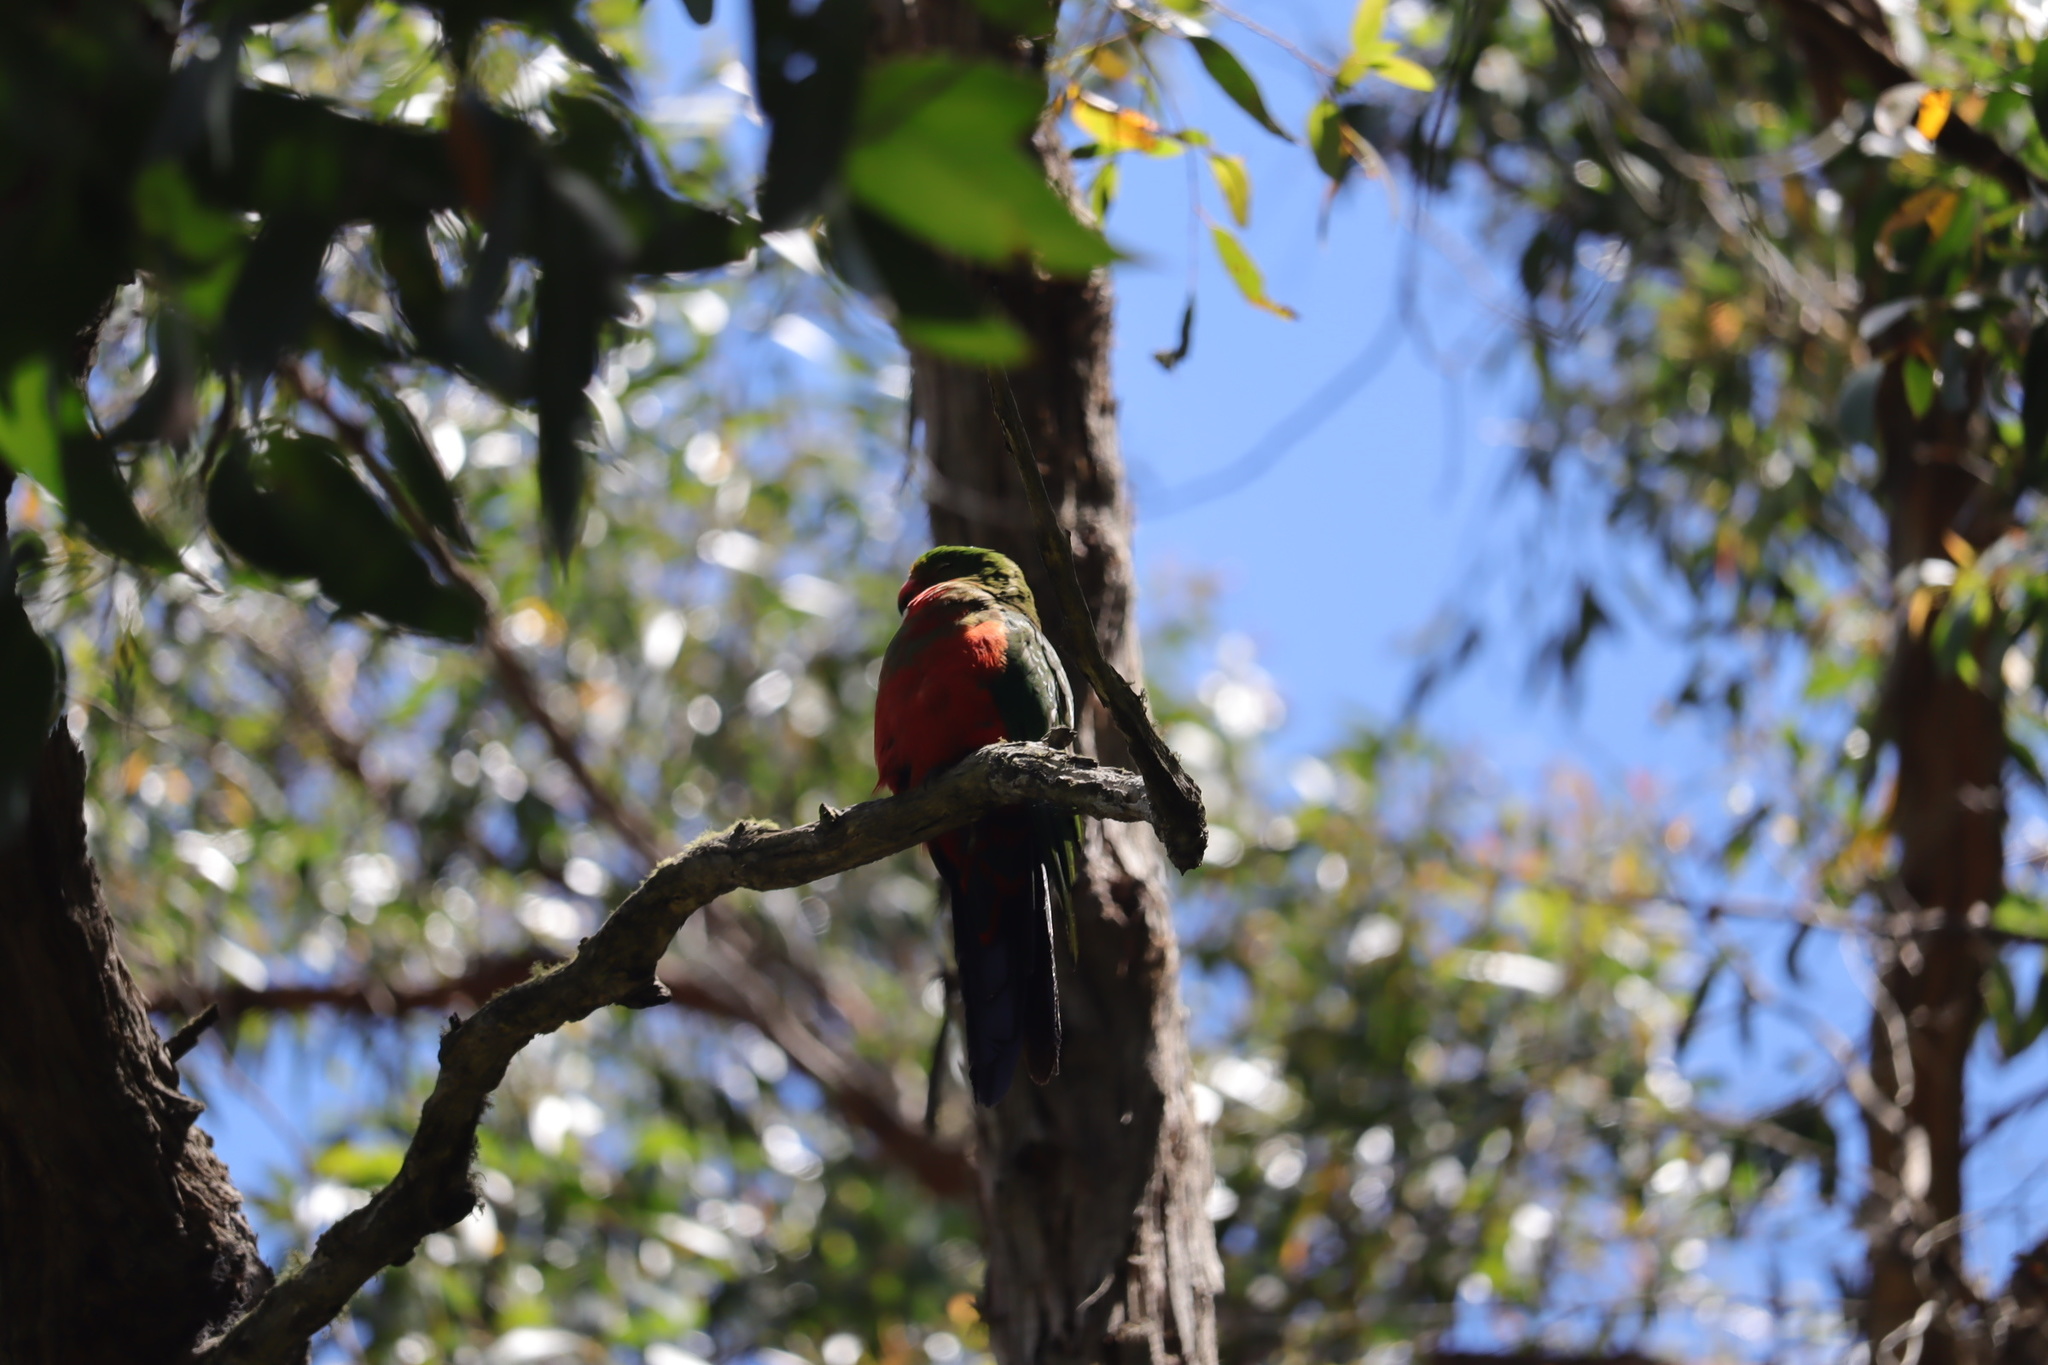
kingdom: Animalia
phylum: Chordata
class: Aves
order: Psittaciformes
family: Psittacidae
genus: Alisterus
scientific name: Alisterus scapularis
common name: Australian king parrot
